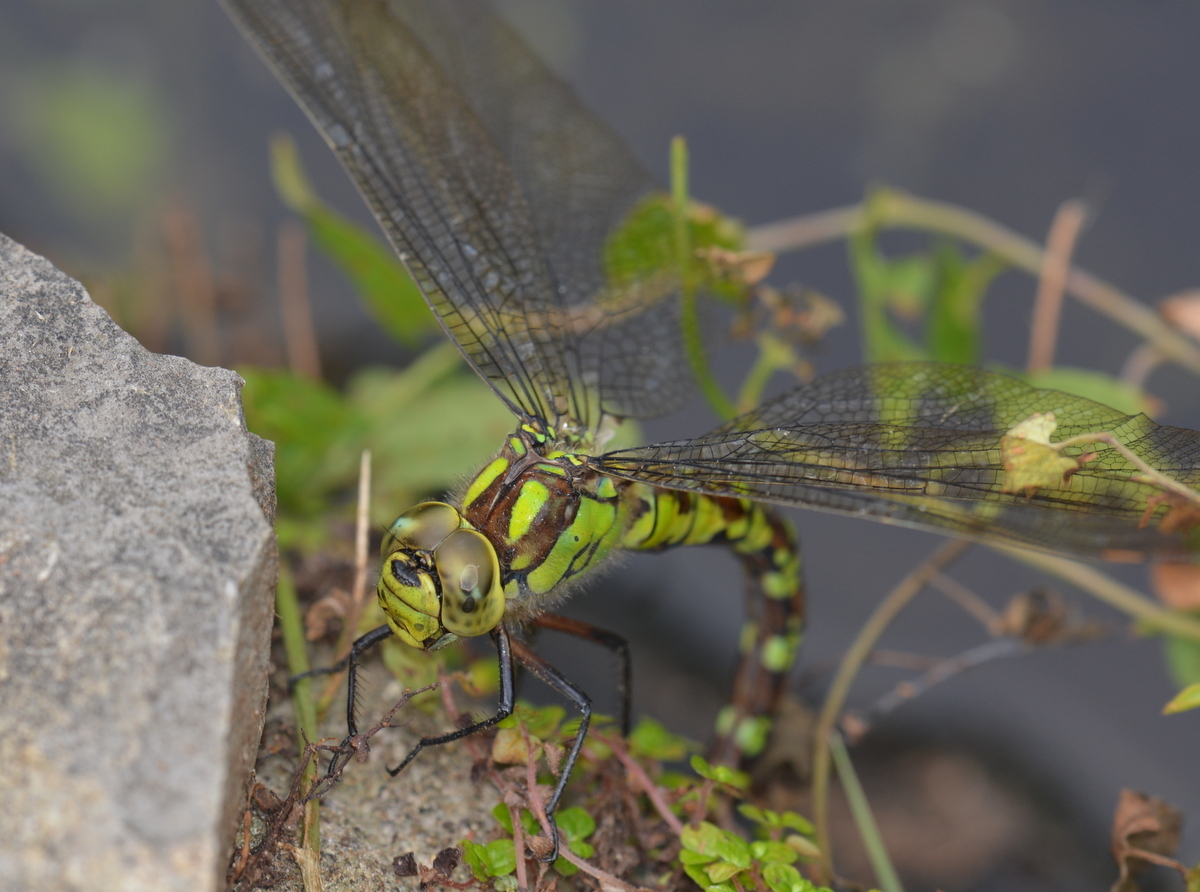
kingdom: Animalia
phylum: Arthropoda
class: Insecta
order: Odonata
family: Aeshnidae
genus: Aeshna
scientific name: Aeshna cyanea
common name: Southern hawker
